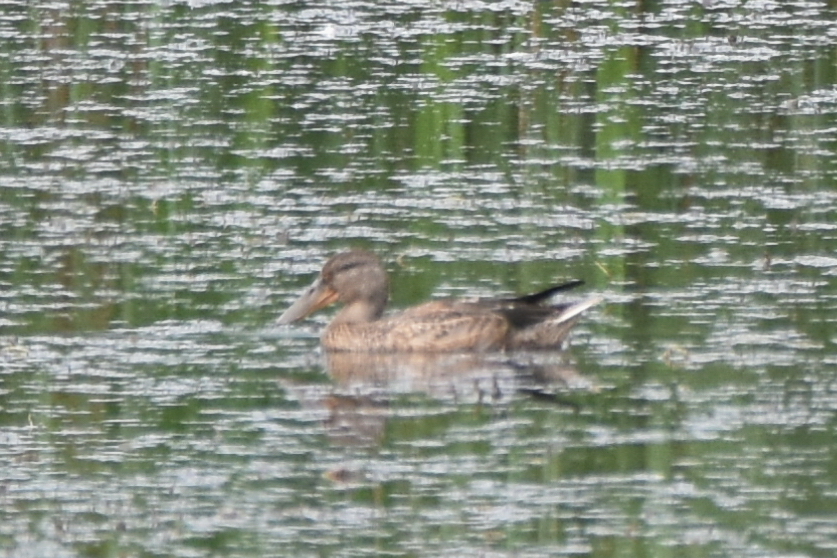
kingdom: Animalia
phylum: Chordata
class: Aves
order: Anseriformes
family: Anatidae
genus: Spatula
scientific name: Spatula clypeata
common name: Northern shoveler
